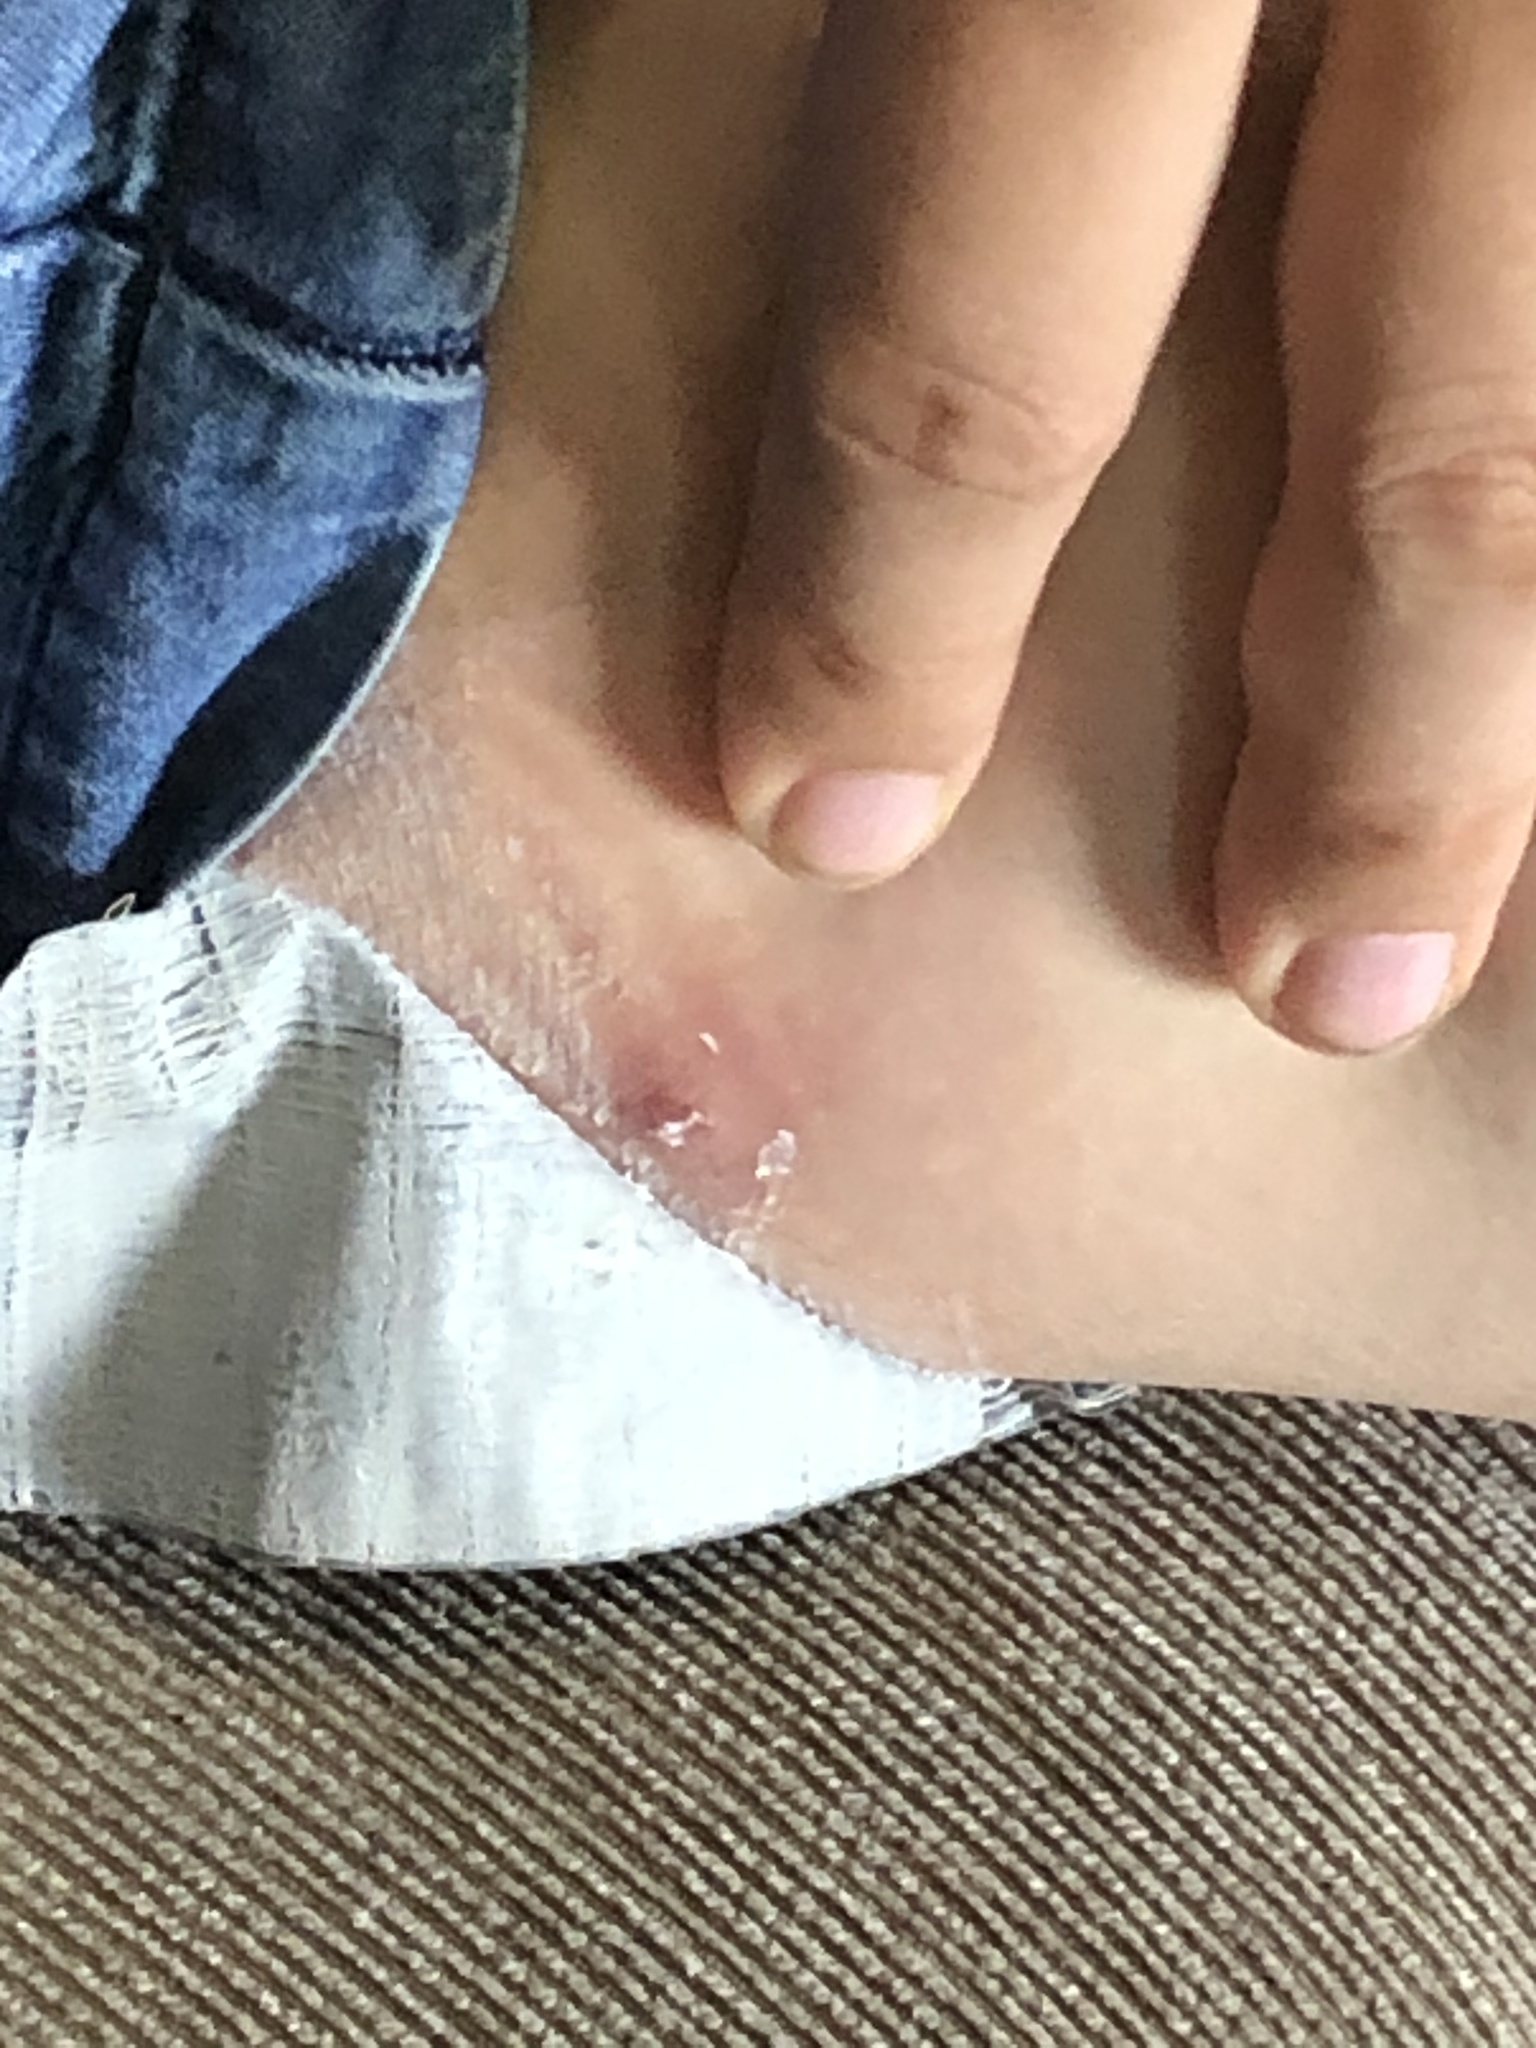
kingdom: Animalia
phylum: Arthropoda
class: Insecta
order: Diptera
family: Oestridae
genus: Dermatobia
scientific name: Dermatobia hominis
